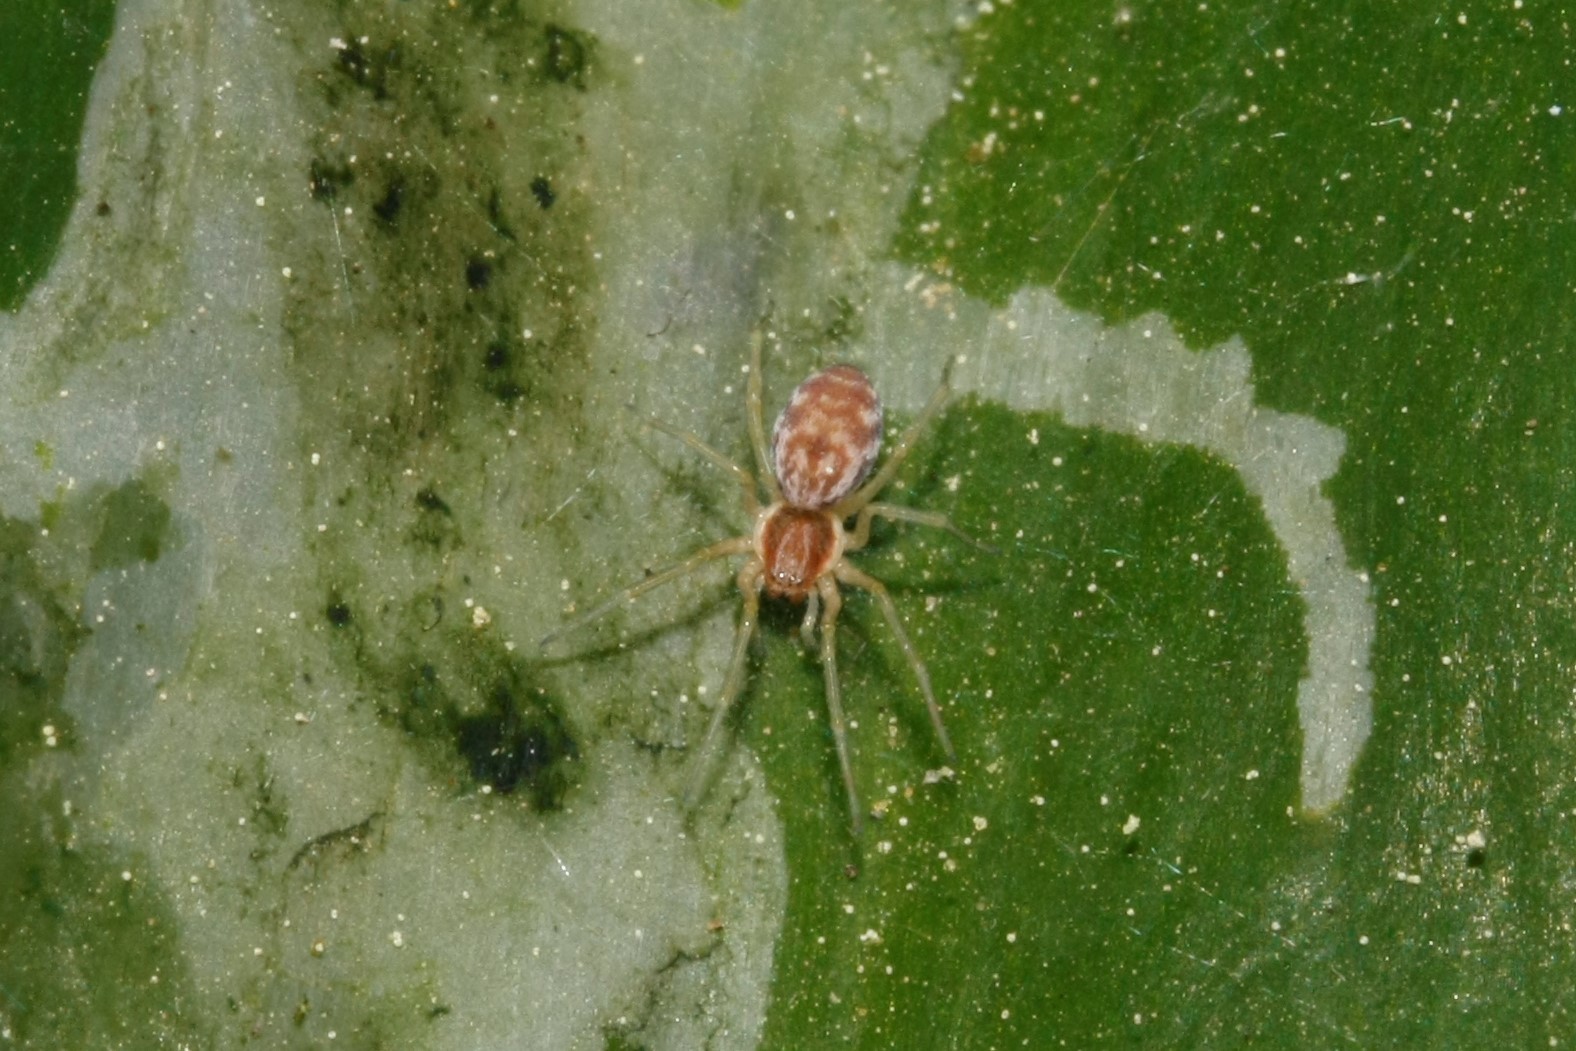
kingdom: Animalia
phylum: Arthropoda
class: Arachnida
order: Araneae
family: Dictynidae
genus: Nigma
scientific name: Nigma flavescens
